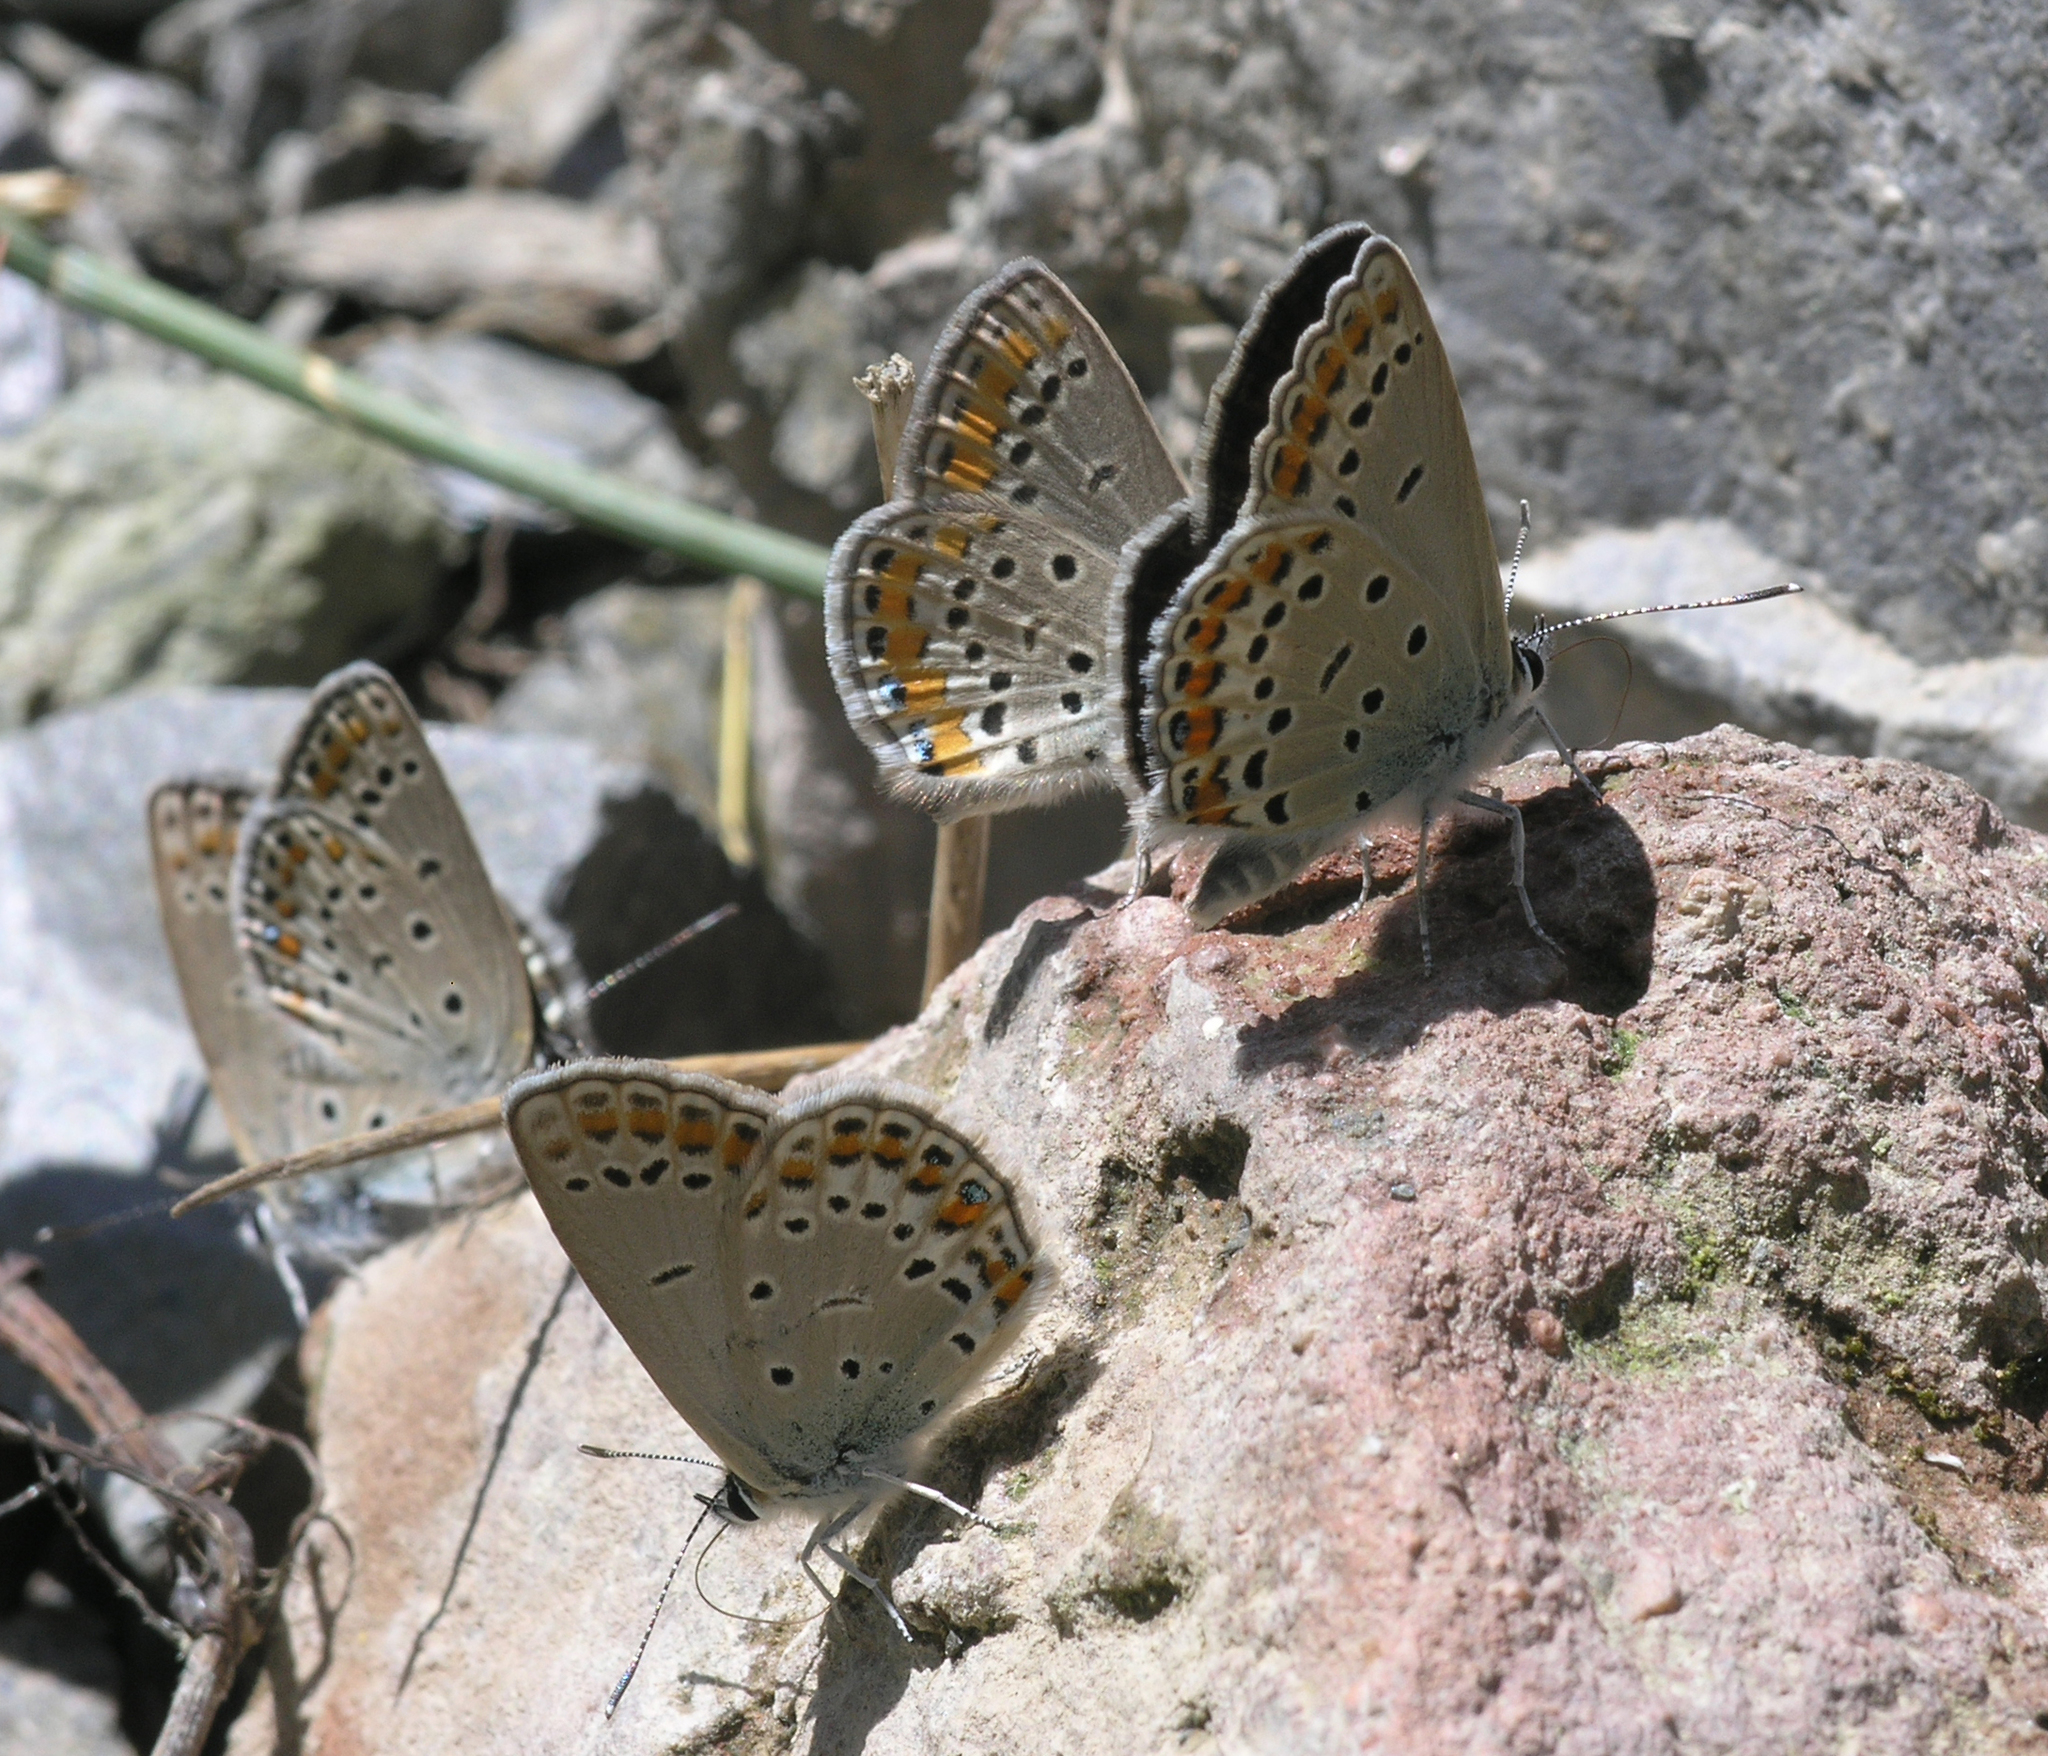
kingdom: Animalia
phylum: Arthropoda
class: Insecta
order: Lepidoptera
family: Lycaenidae
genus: Kretania
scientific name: Kretania eurypilus
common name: Eastern brown argus
